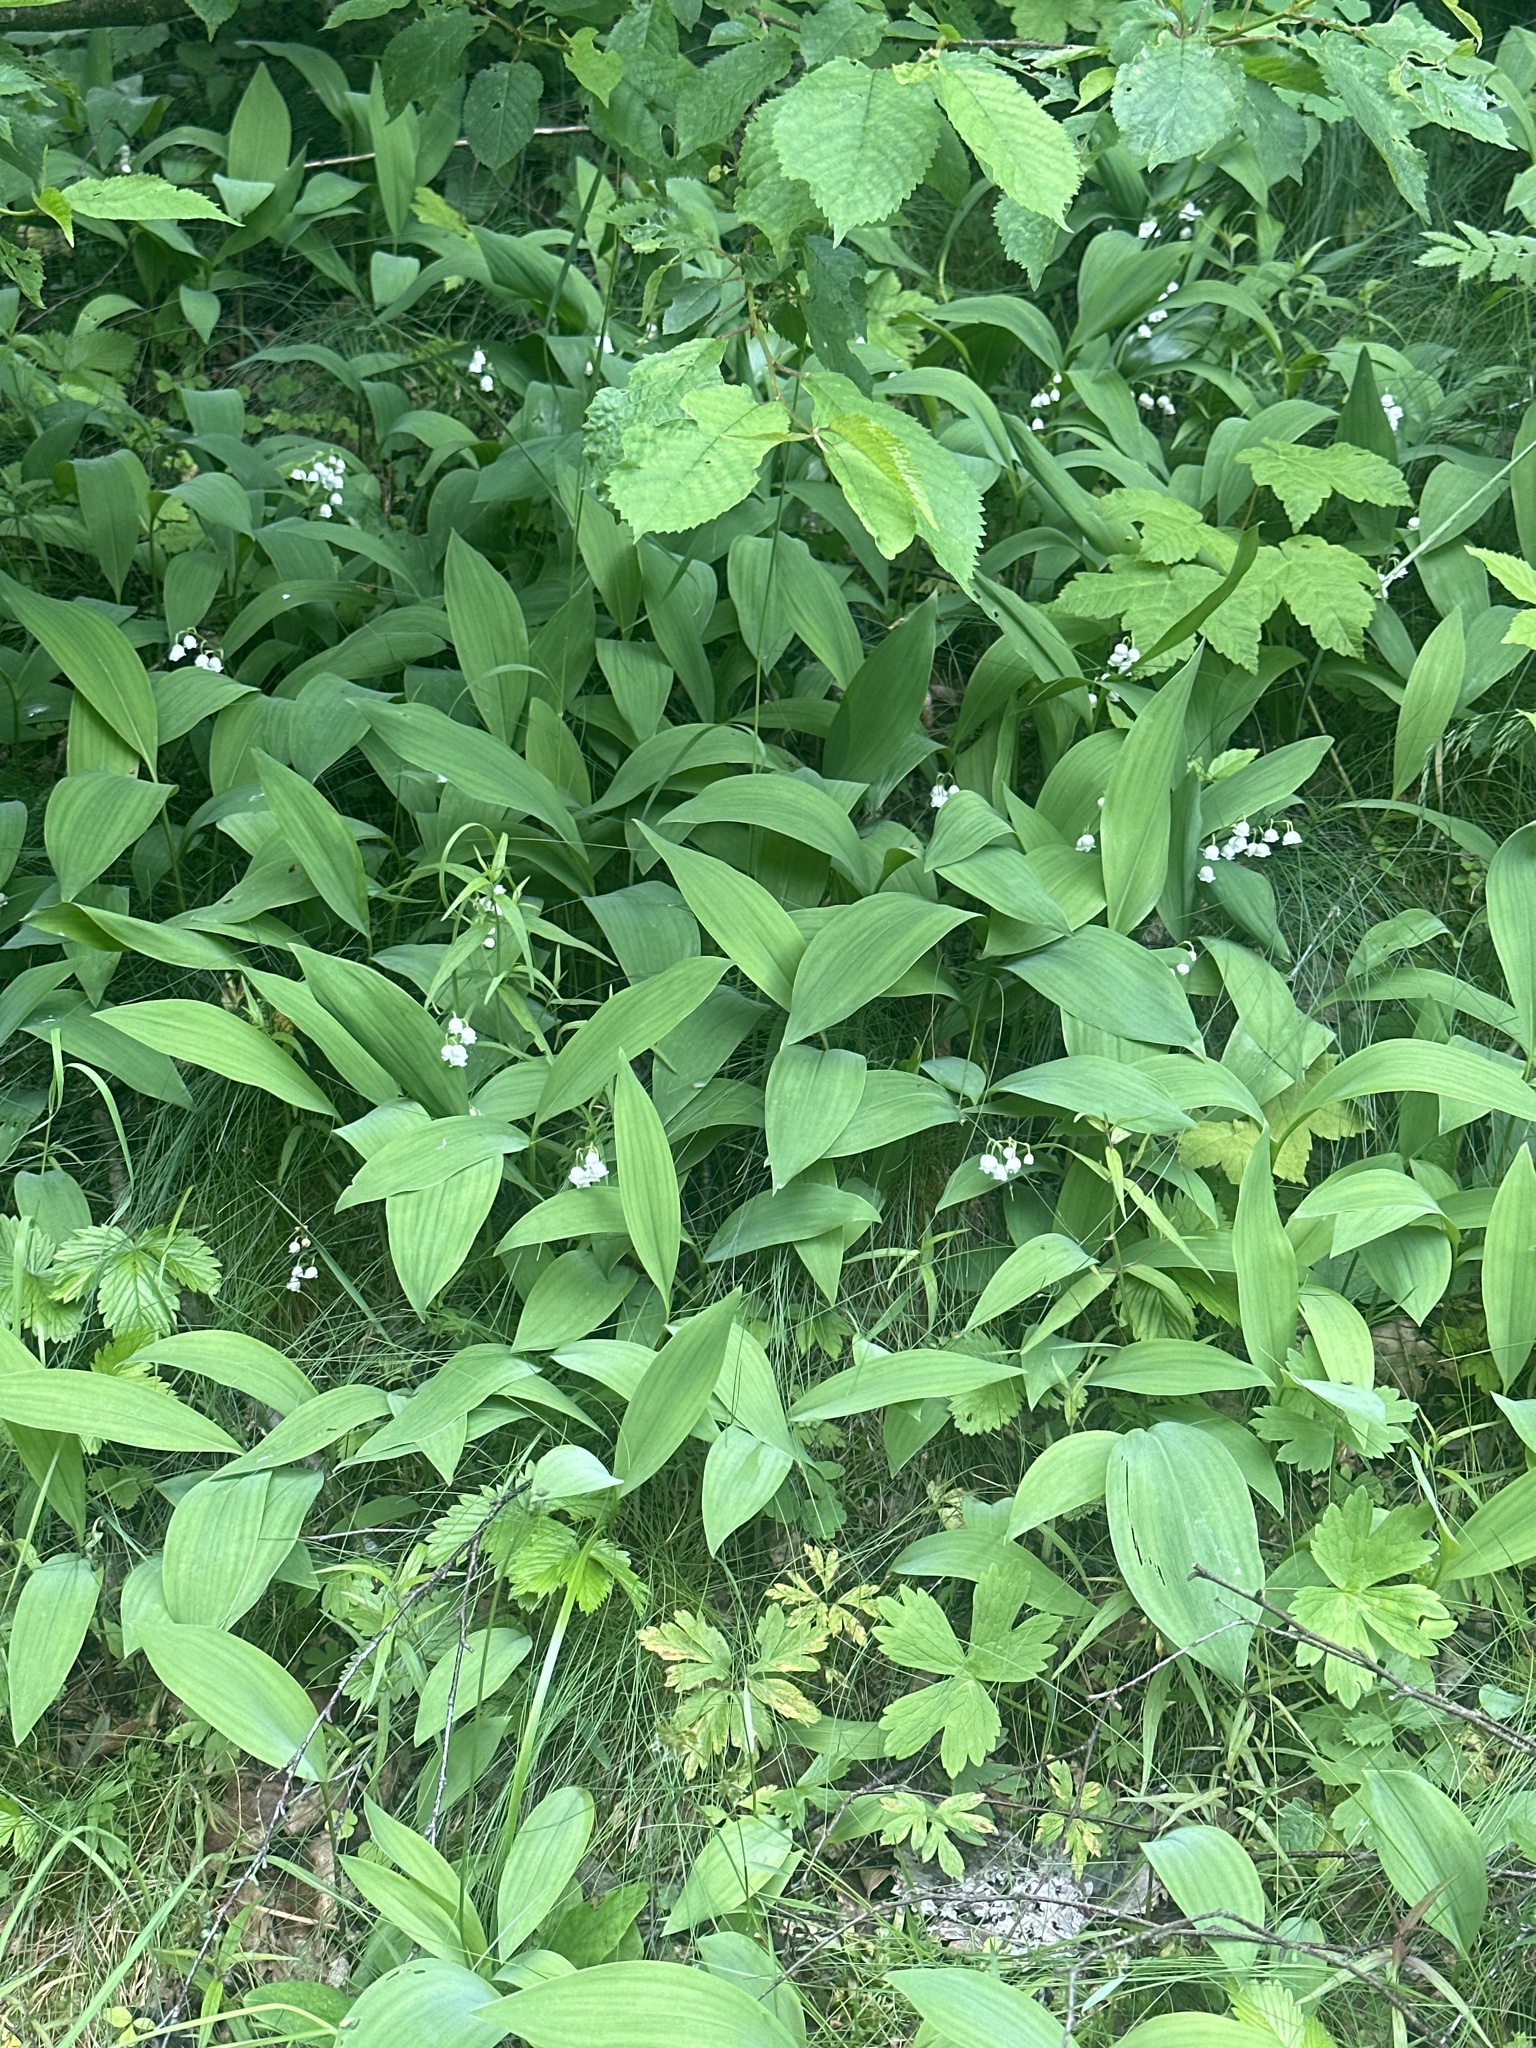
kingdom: Plantae
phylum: Tracheophyta
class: Liliopsida
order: Asparagales
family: Asparagaceae
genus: Convallaria
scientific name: Convallaria majalis
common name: Lily-of-the-valley
